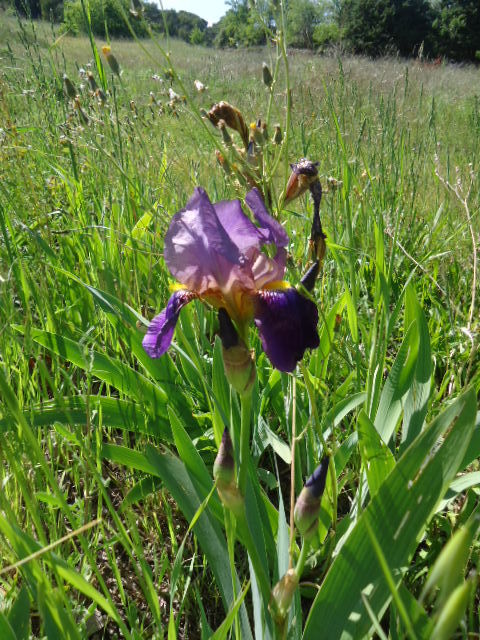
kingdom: Plantae
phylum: Tracheophyta
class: Liliopsida
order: Asparagales
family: Iridaceae
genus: Iris
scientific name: Iris germanica
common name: German iris
